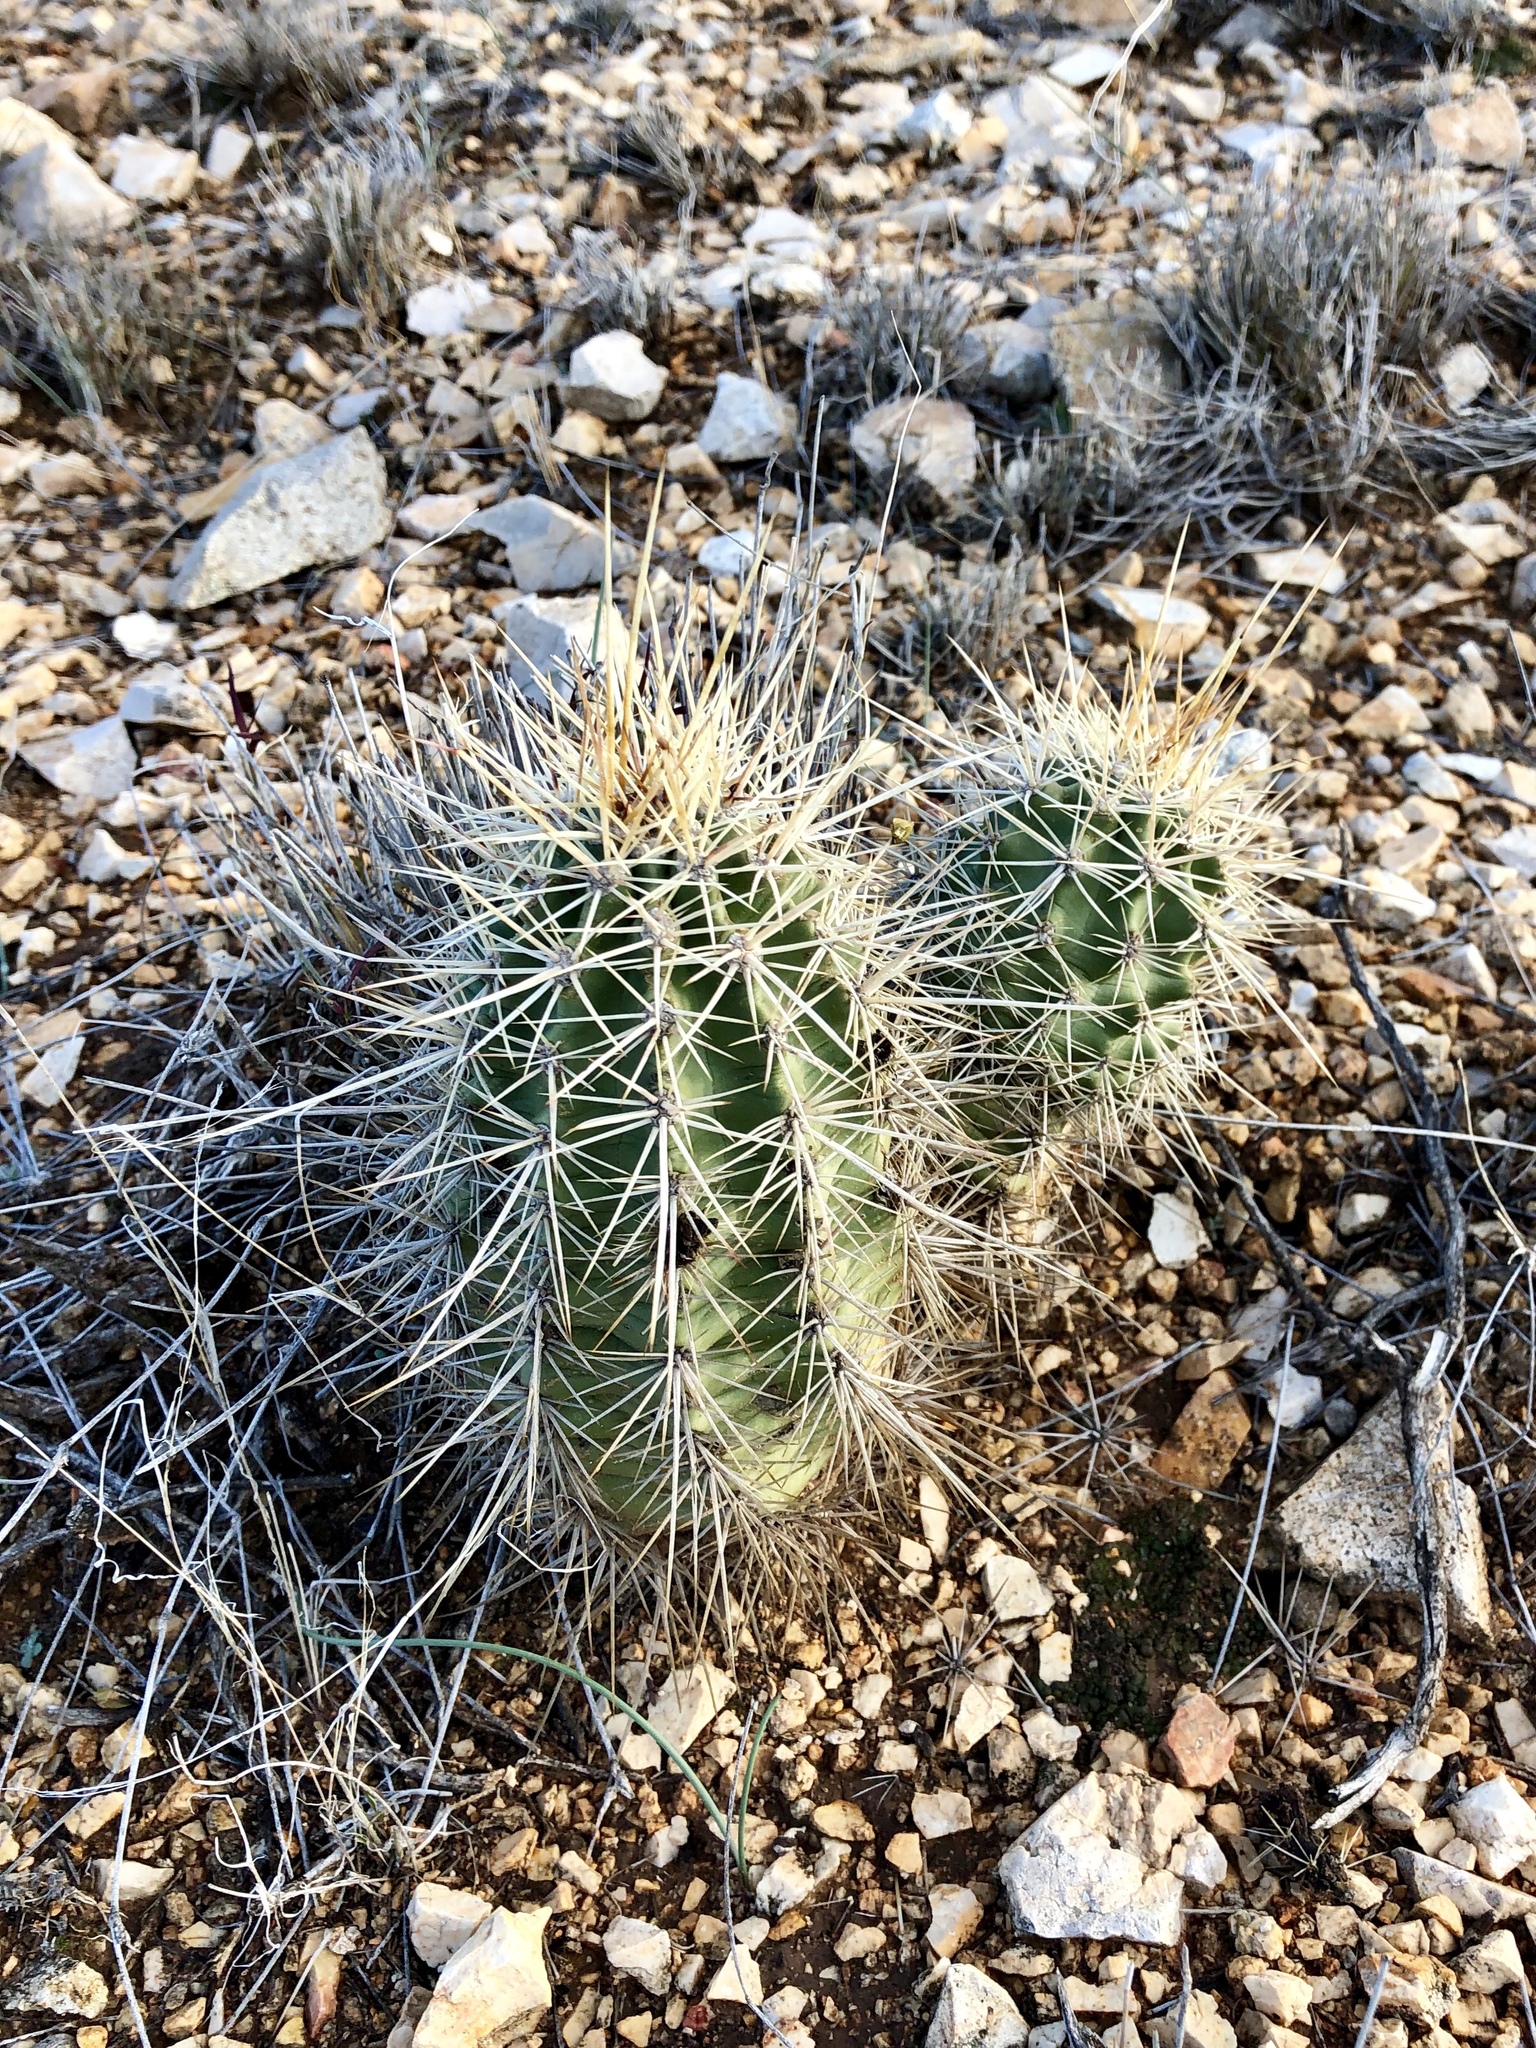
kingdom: Plantae
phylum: Tracheophyta
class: Magnoliopsida
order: Caryophyllales
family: Cactaceae
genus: Echinocereus
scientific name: Echinocereus coccineus
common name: Scarlet hedgehog cactus
